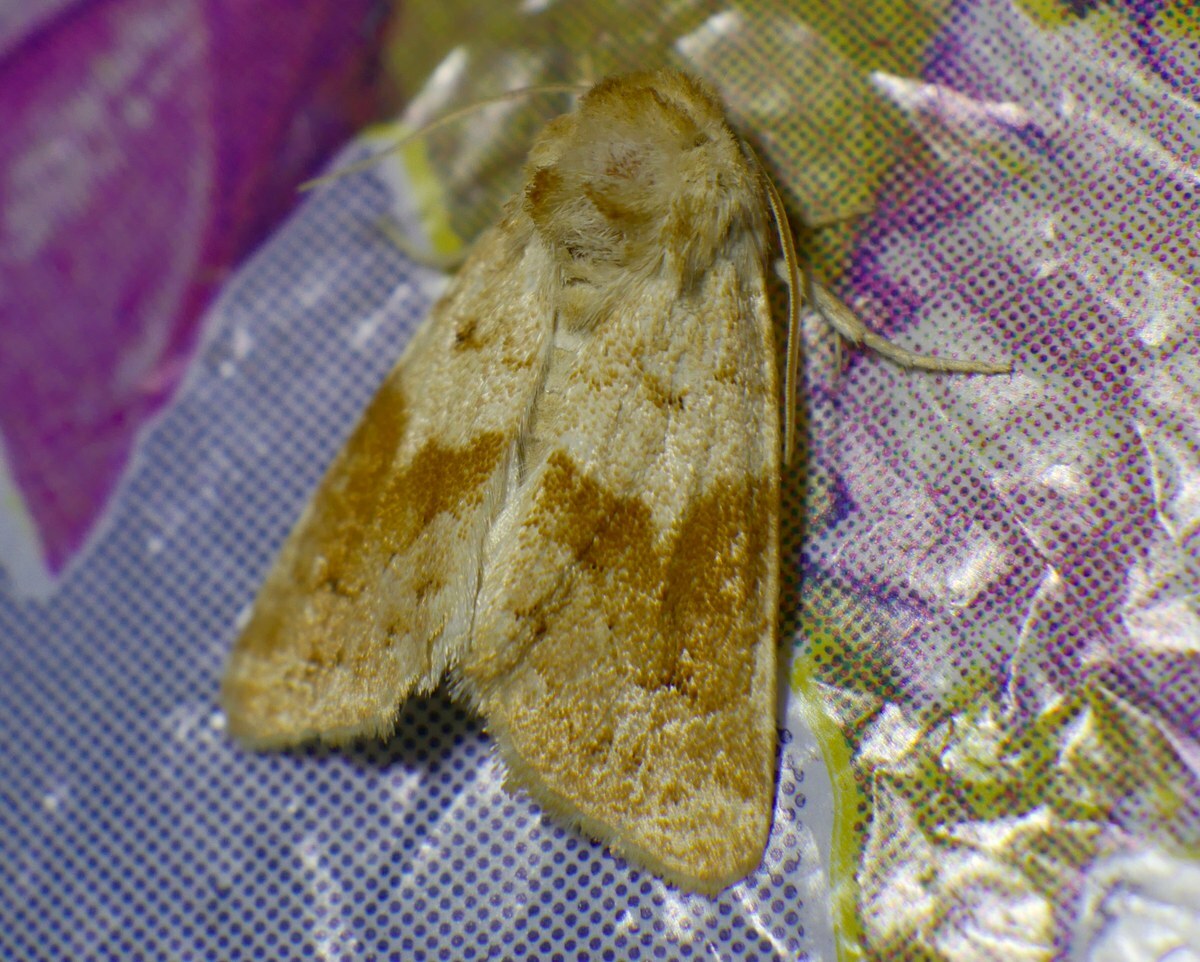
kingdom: Animalia
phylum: Arthropoda
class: Insecta
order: Lepidoptera
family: Noctuidae
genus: Mycteroplus
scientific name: Mycteroplus puniceago
